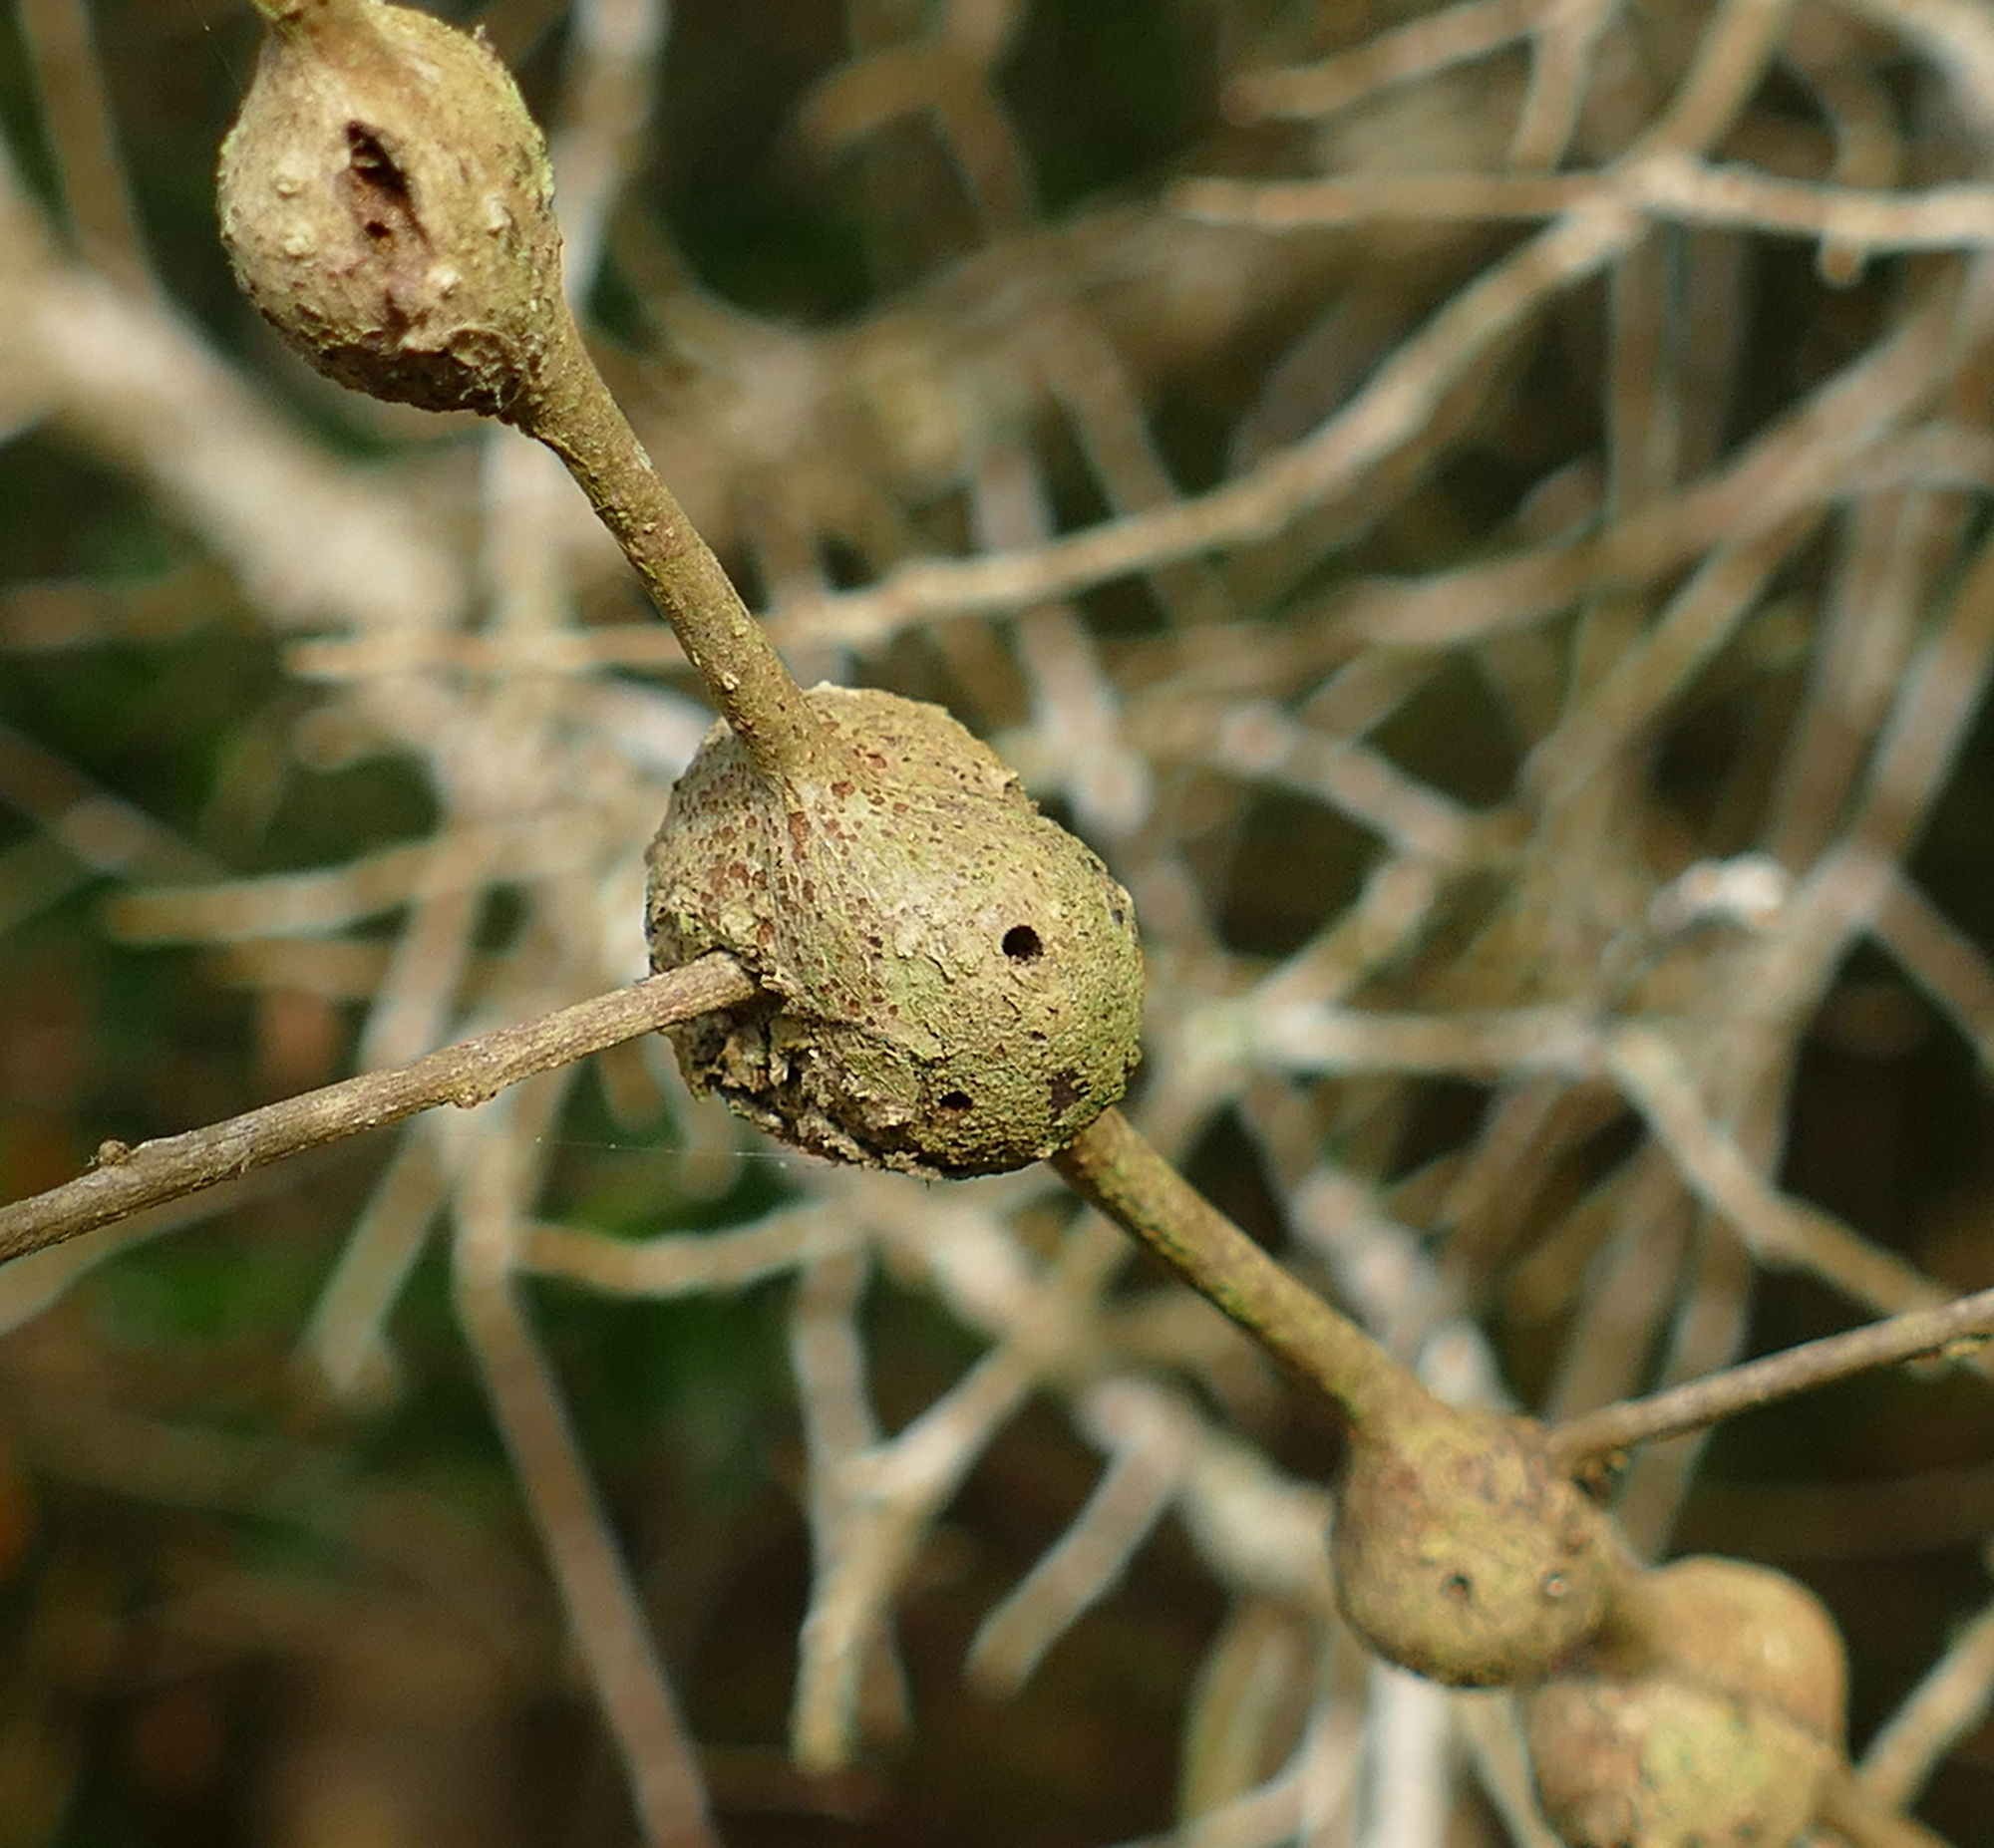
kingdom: Animalia
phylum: Arthropoda
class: Insecta
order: Hymenoptera
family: Cynipidae
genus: Callirhytis
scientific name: Callirhytis
